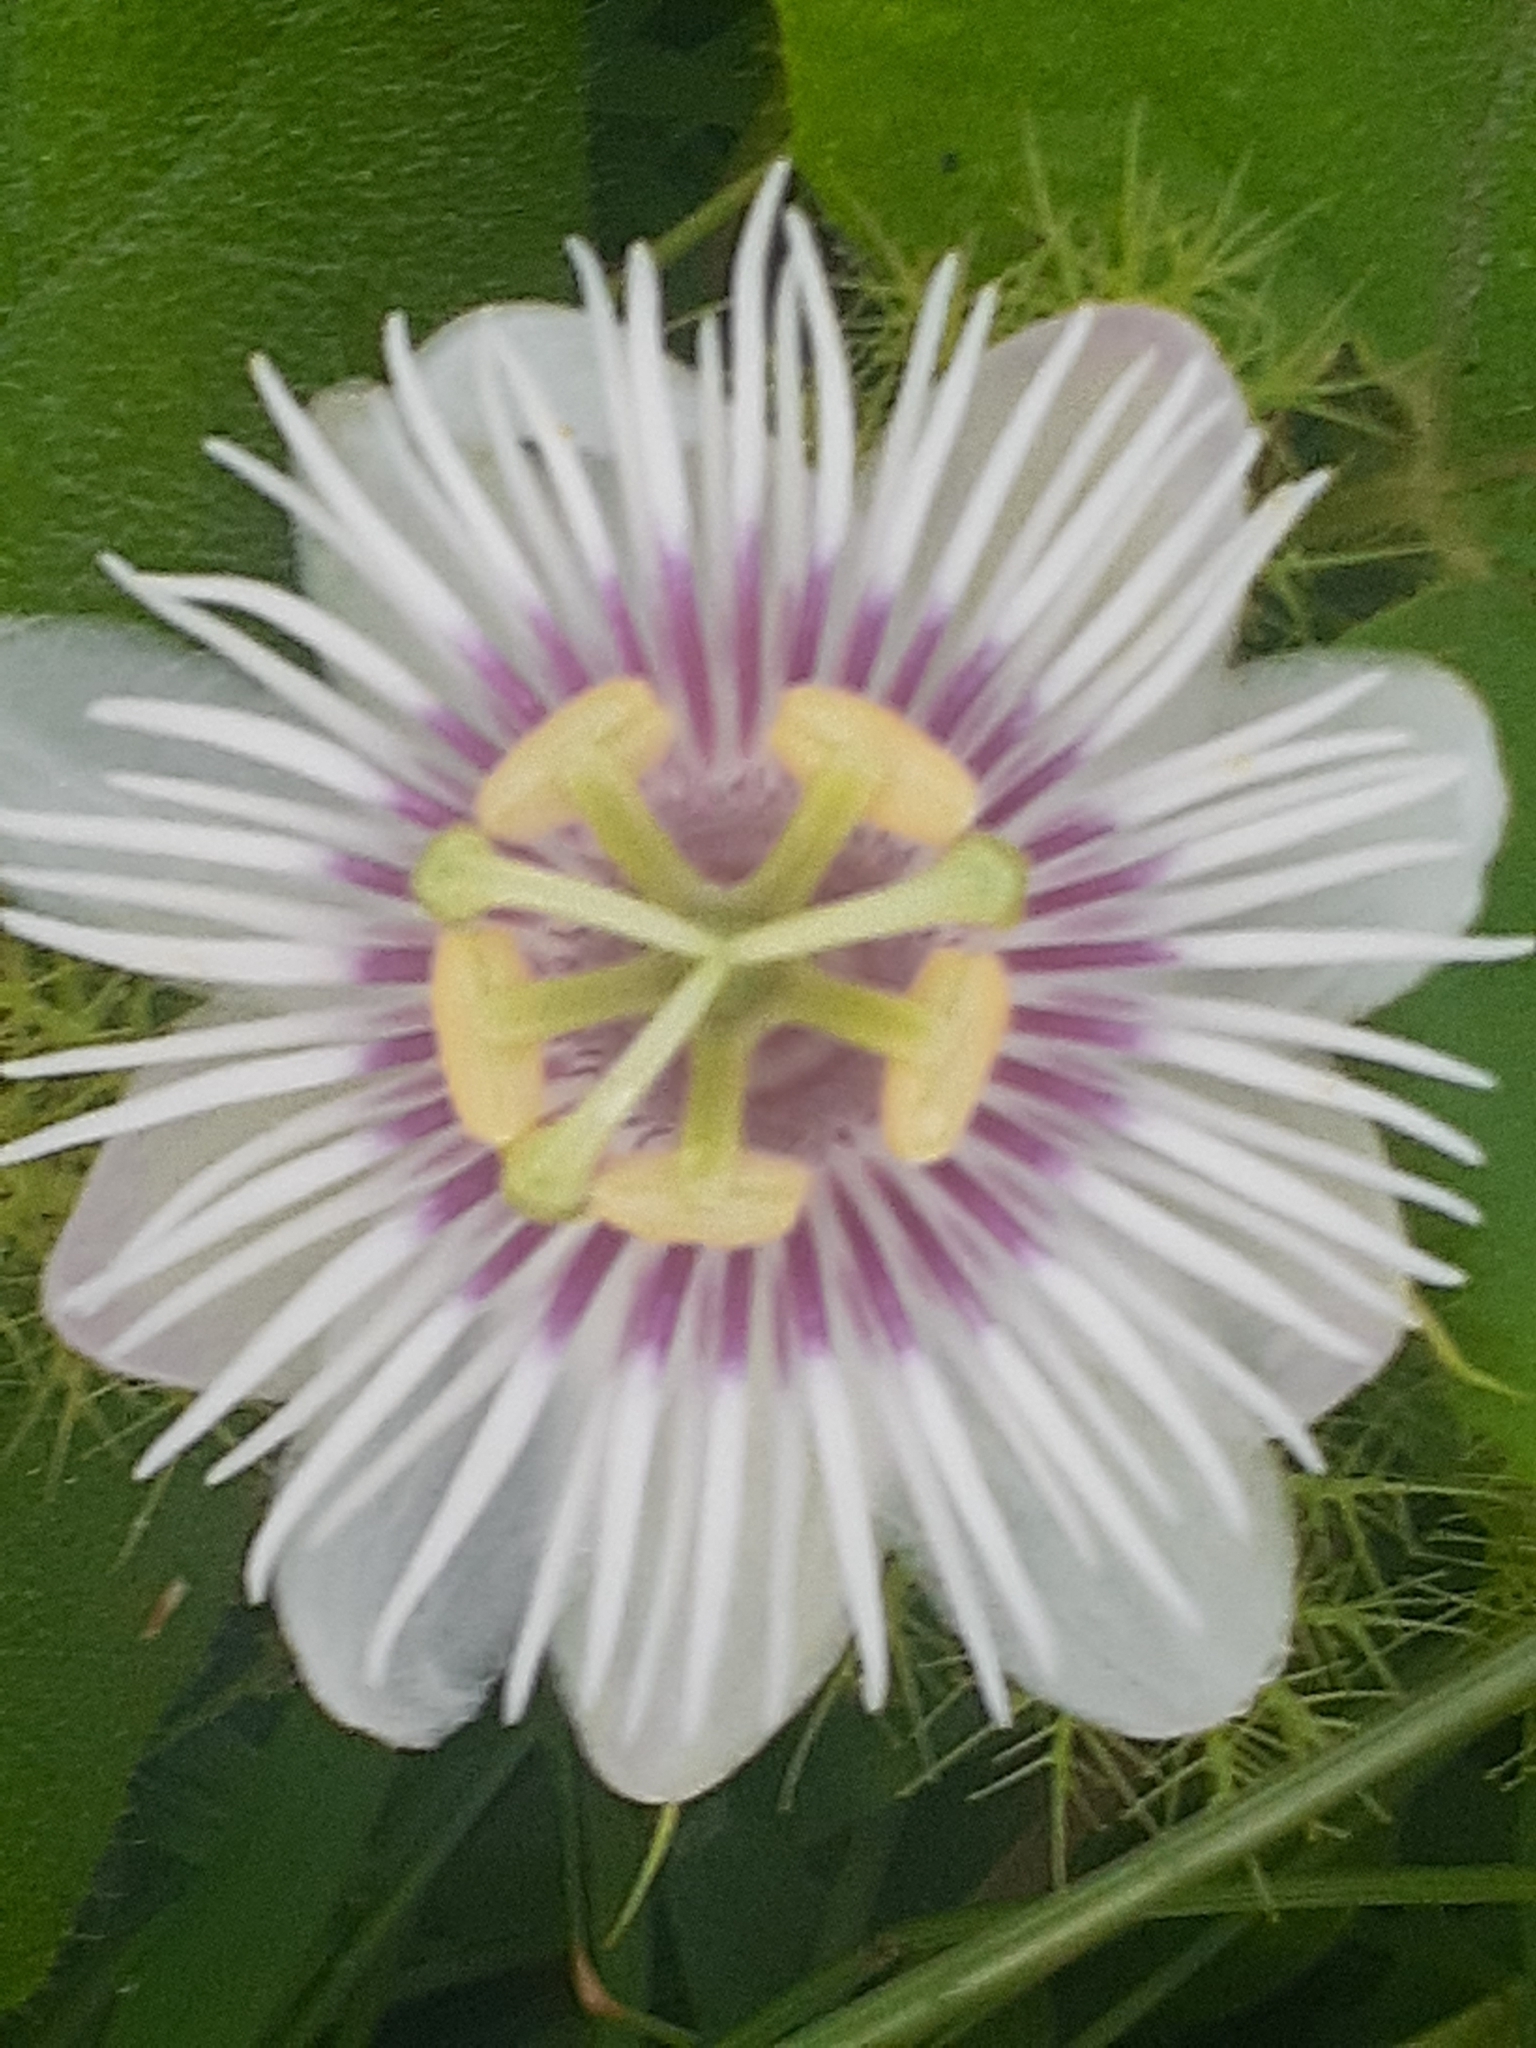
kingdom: Plantae
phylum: Tracheophyta
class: Magnoliopsida
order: Malpighiales
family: Passifloraceae
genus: Passiflora
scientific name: Passiflora foetida
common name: Fetid passionflower
